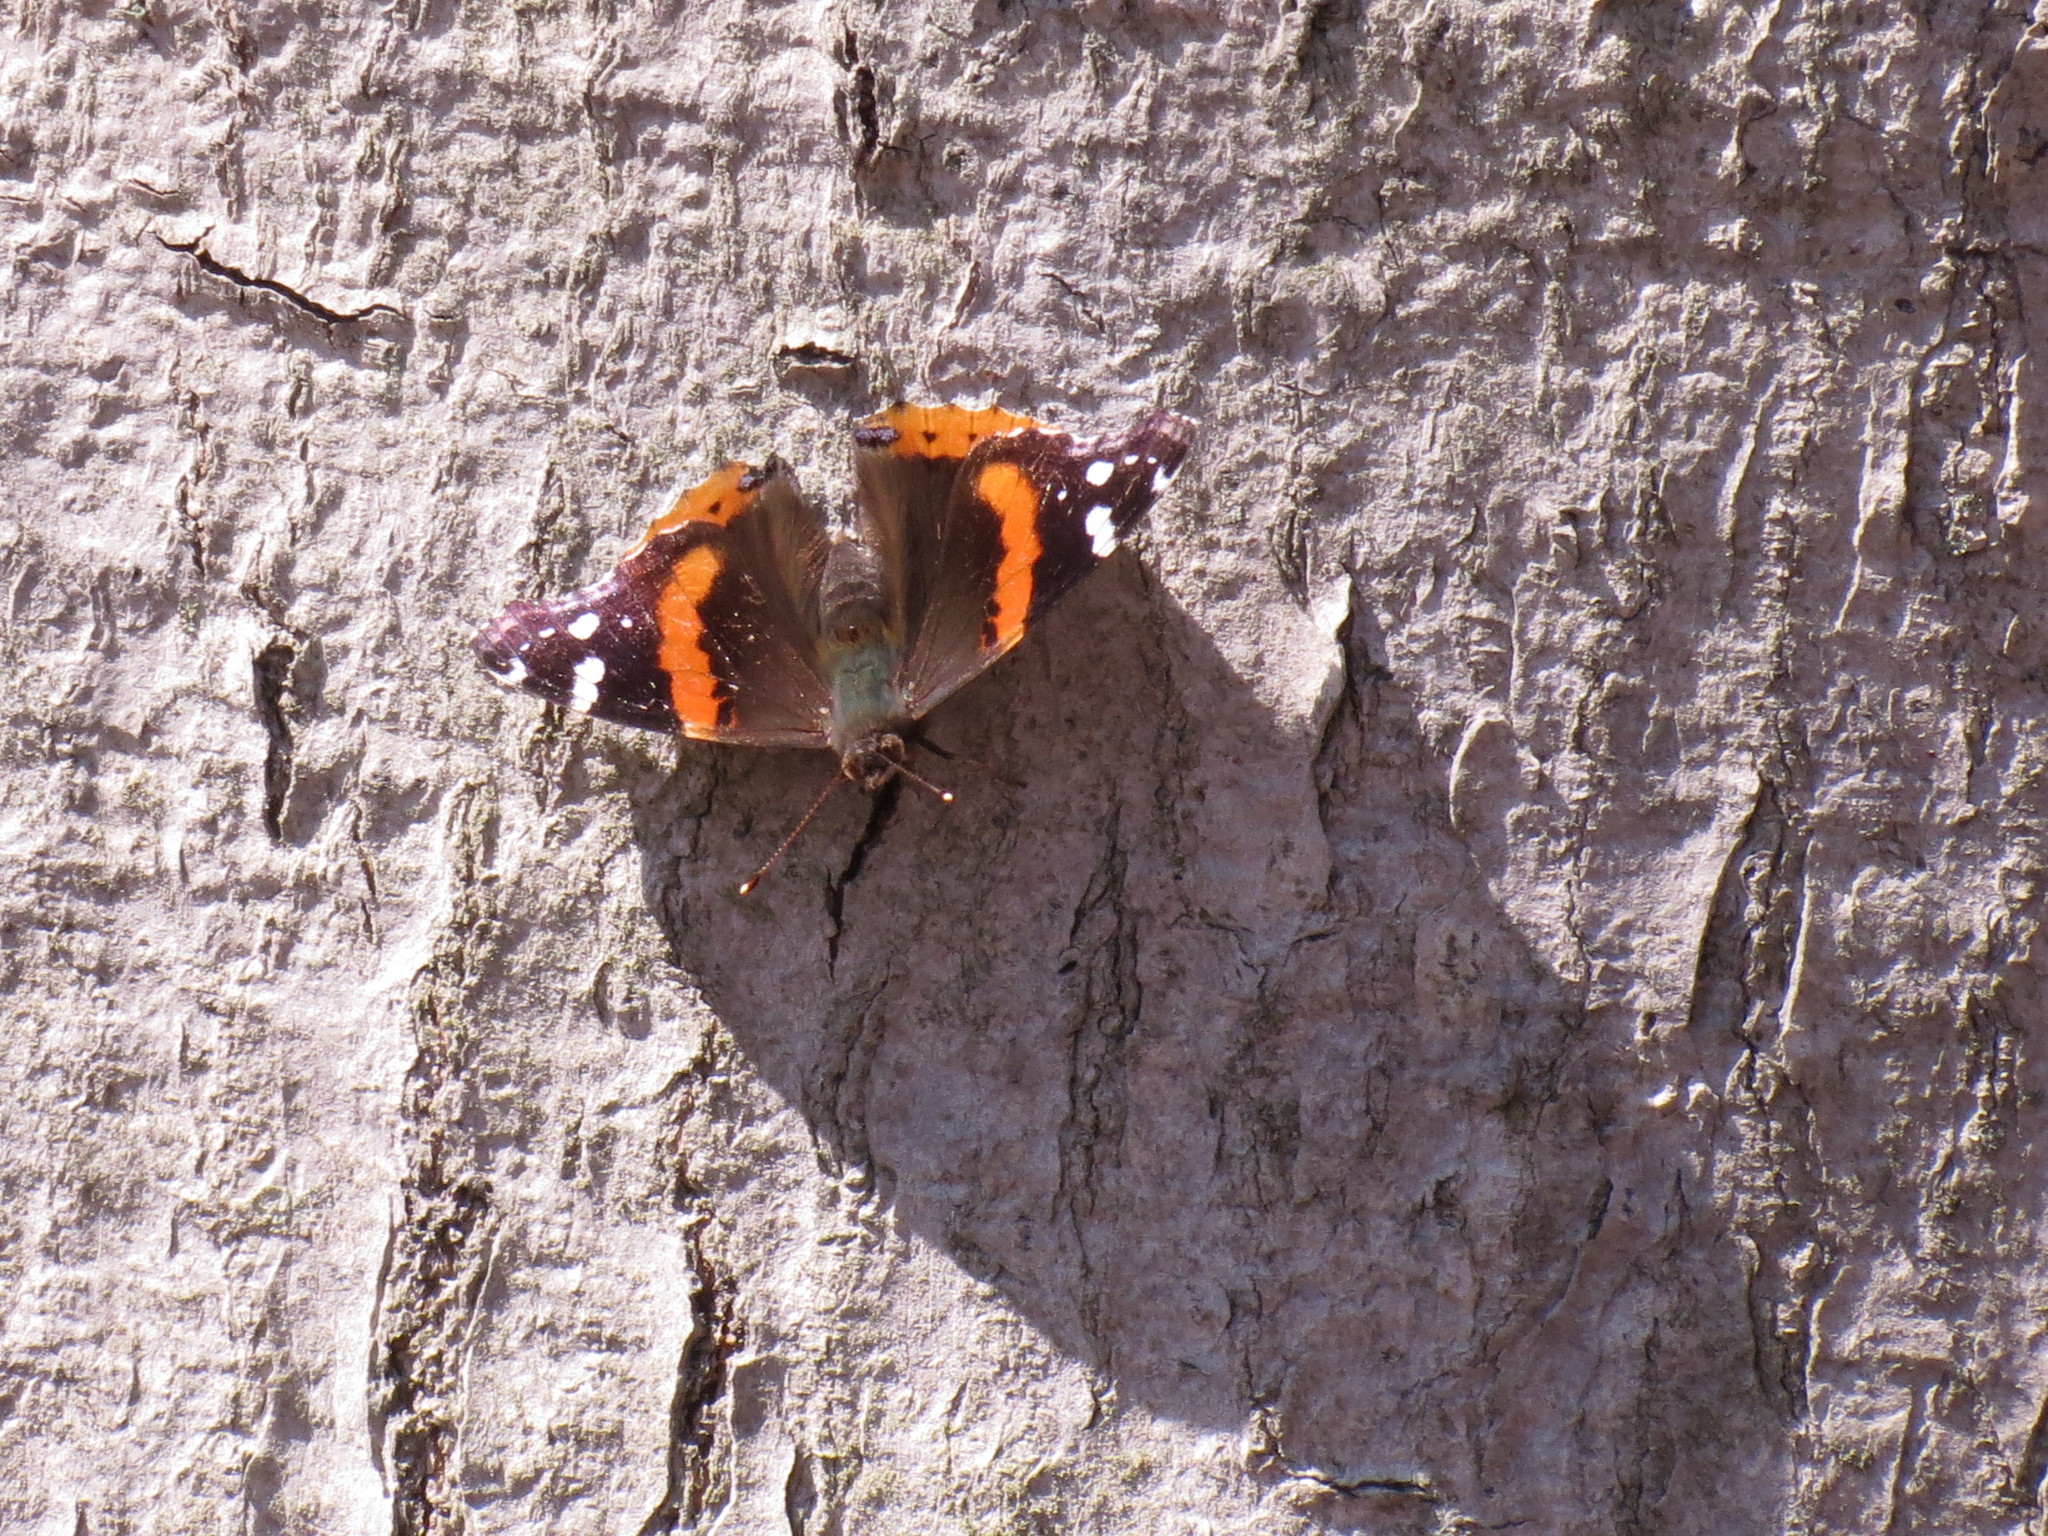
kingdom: Animalia
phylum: Arthropoda
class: Insecta
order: Lepidoptera
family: Nymphalidae
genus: Vanessa
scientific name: Vanessa atalanta
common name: Red admiral
